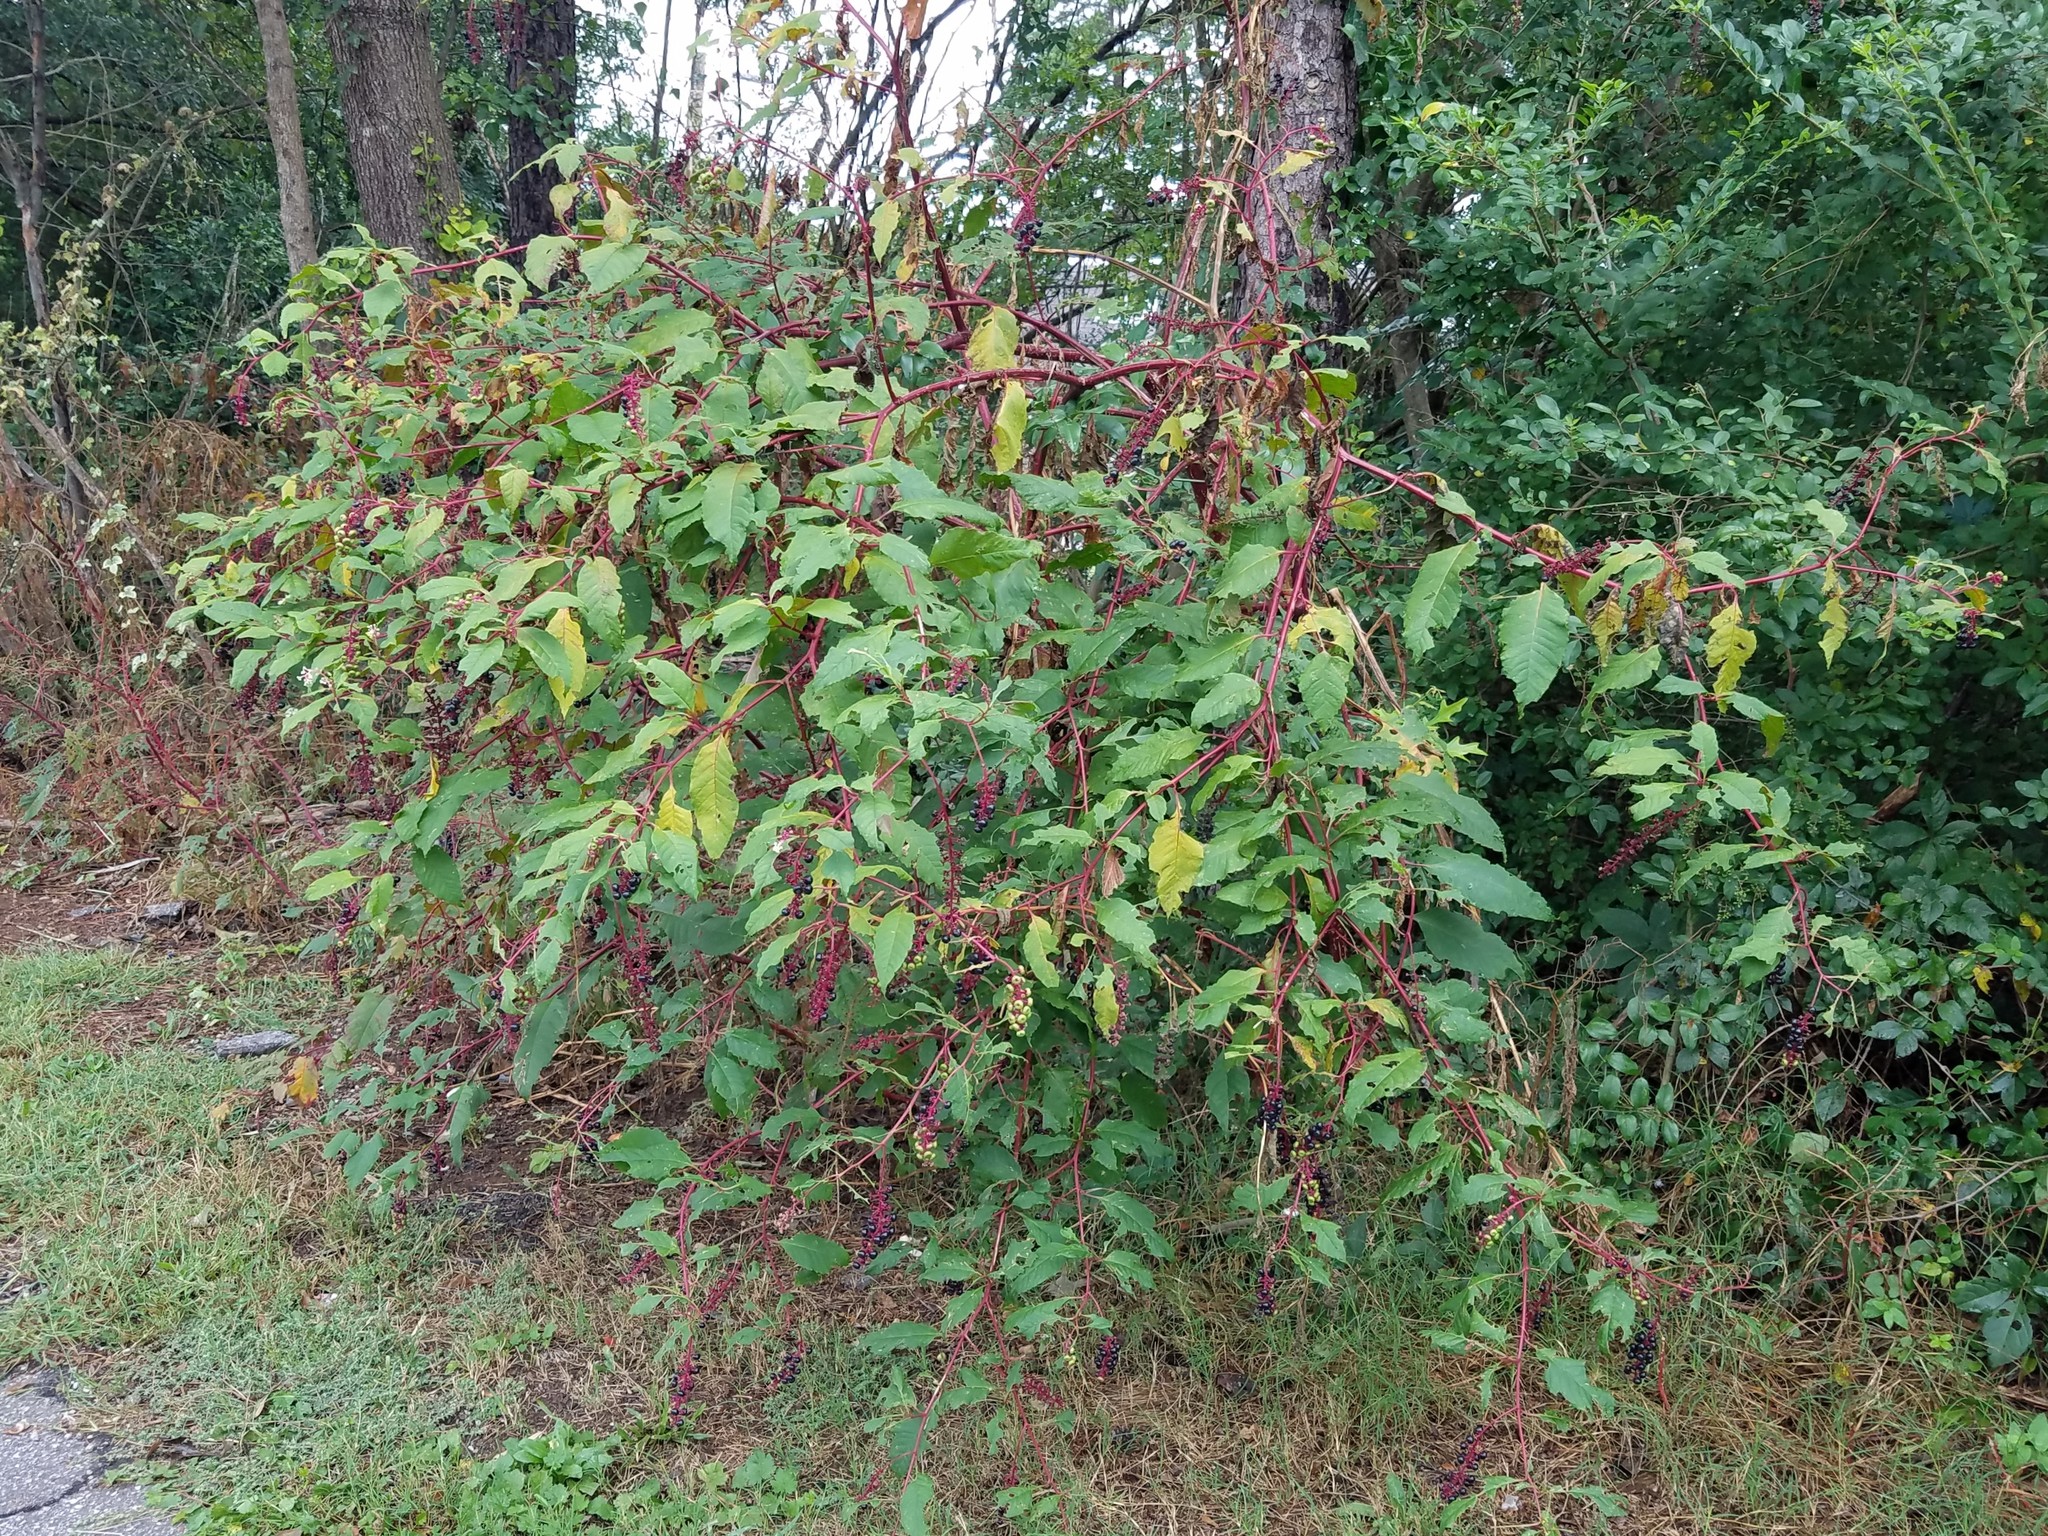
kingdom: Plantae
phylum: Tracheophyta
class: Magnoliopsida
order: Caryophyllales
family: Phytolaccaceae
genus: Phytolacca
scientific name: Phytolacca americana
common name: American pokeweed
